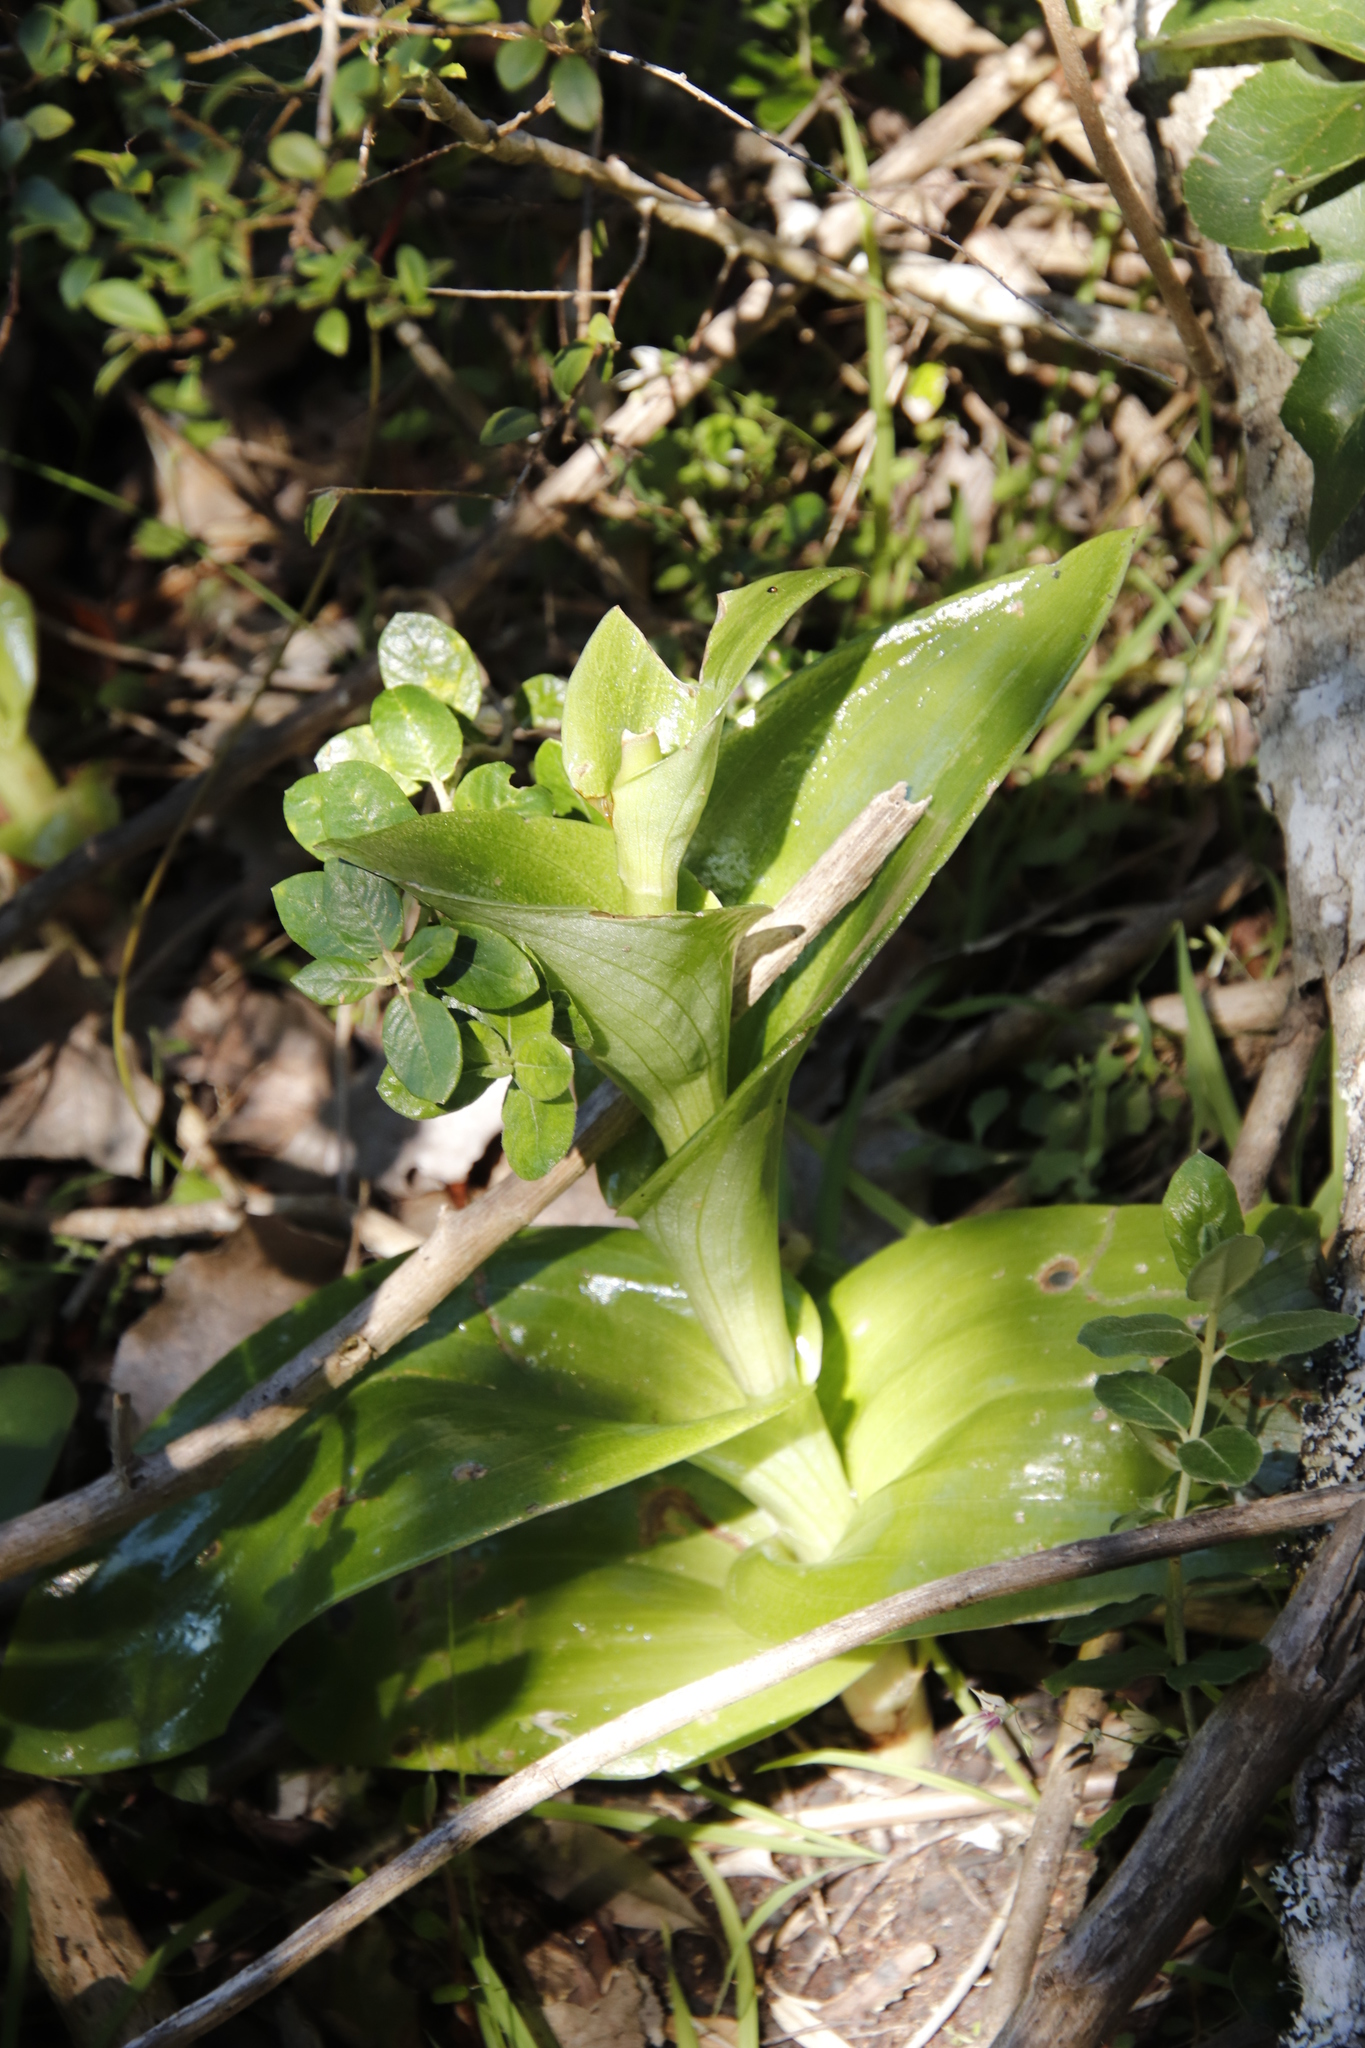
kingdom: Plantae
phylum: Tracheophyta
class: Liliopsida
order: Asparagales
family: Orchidaceae
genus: Satyrium
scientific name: Satyrium odorum
